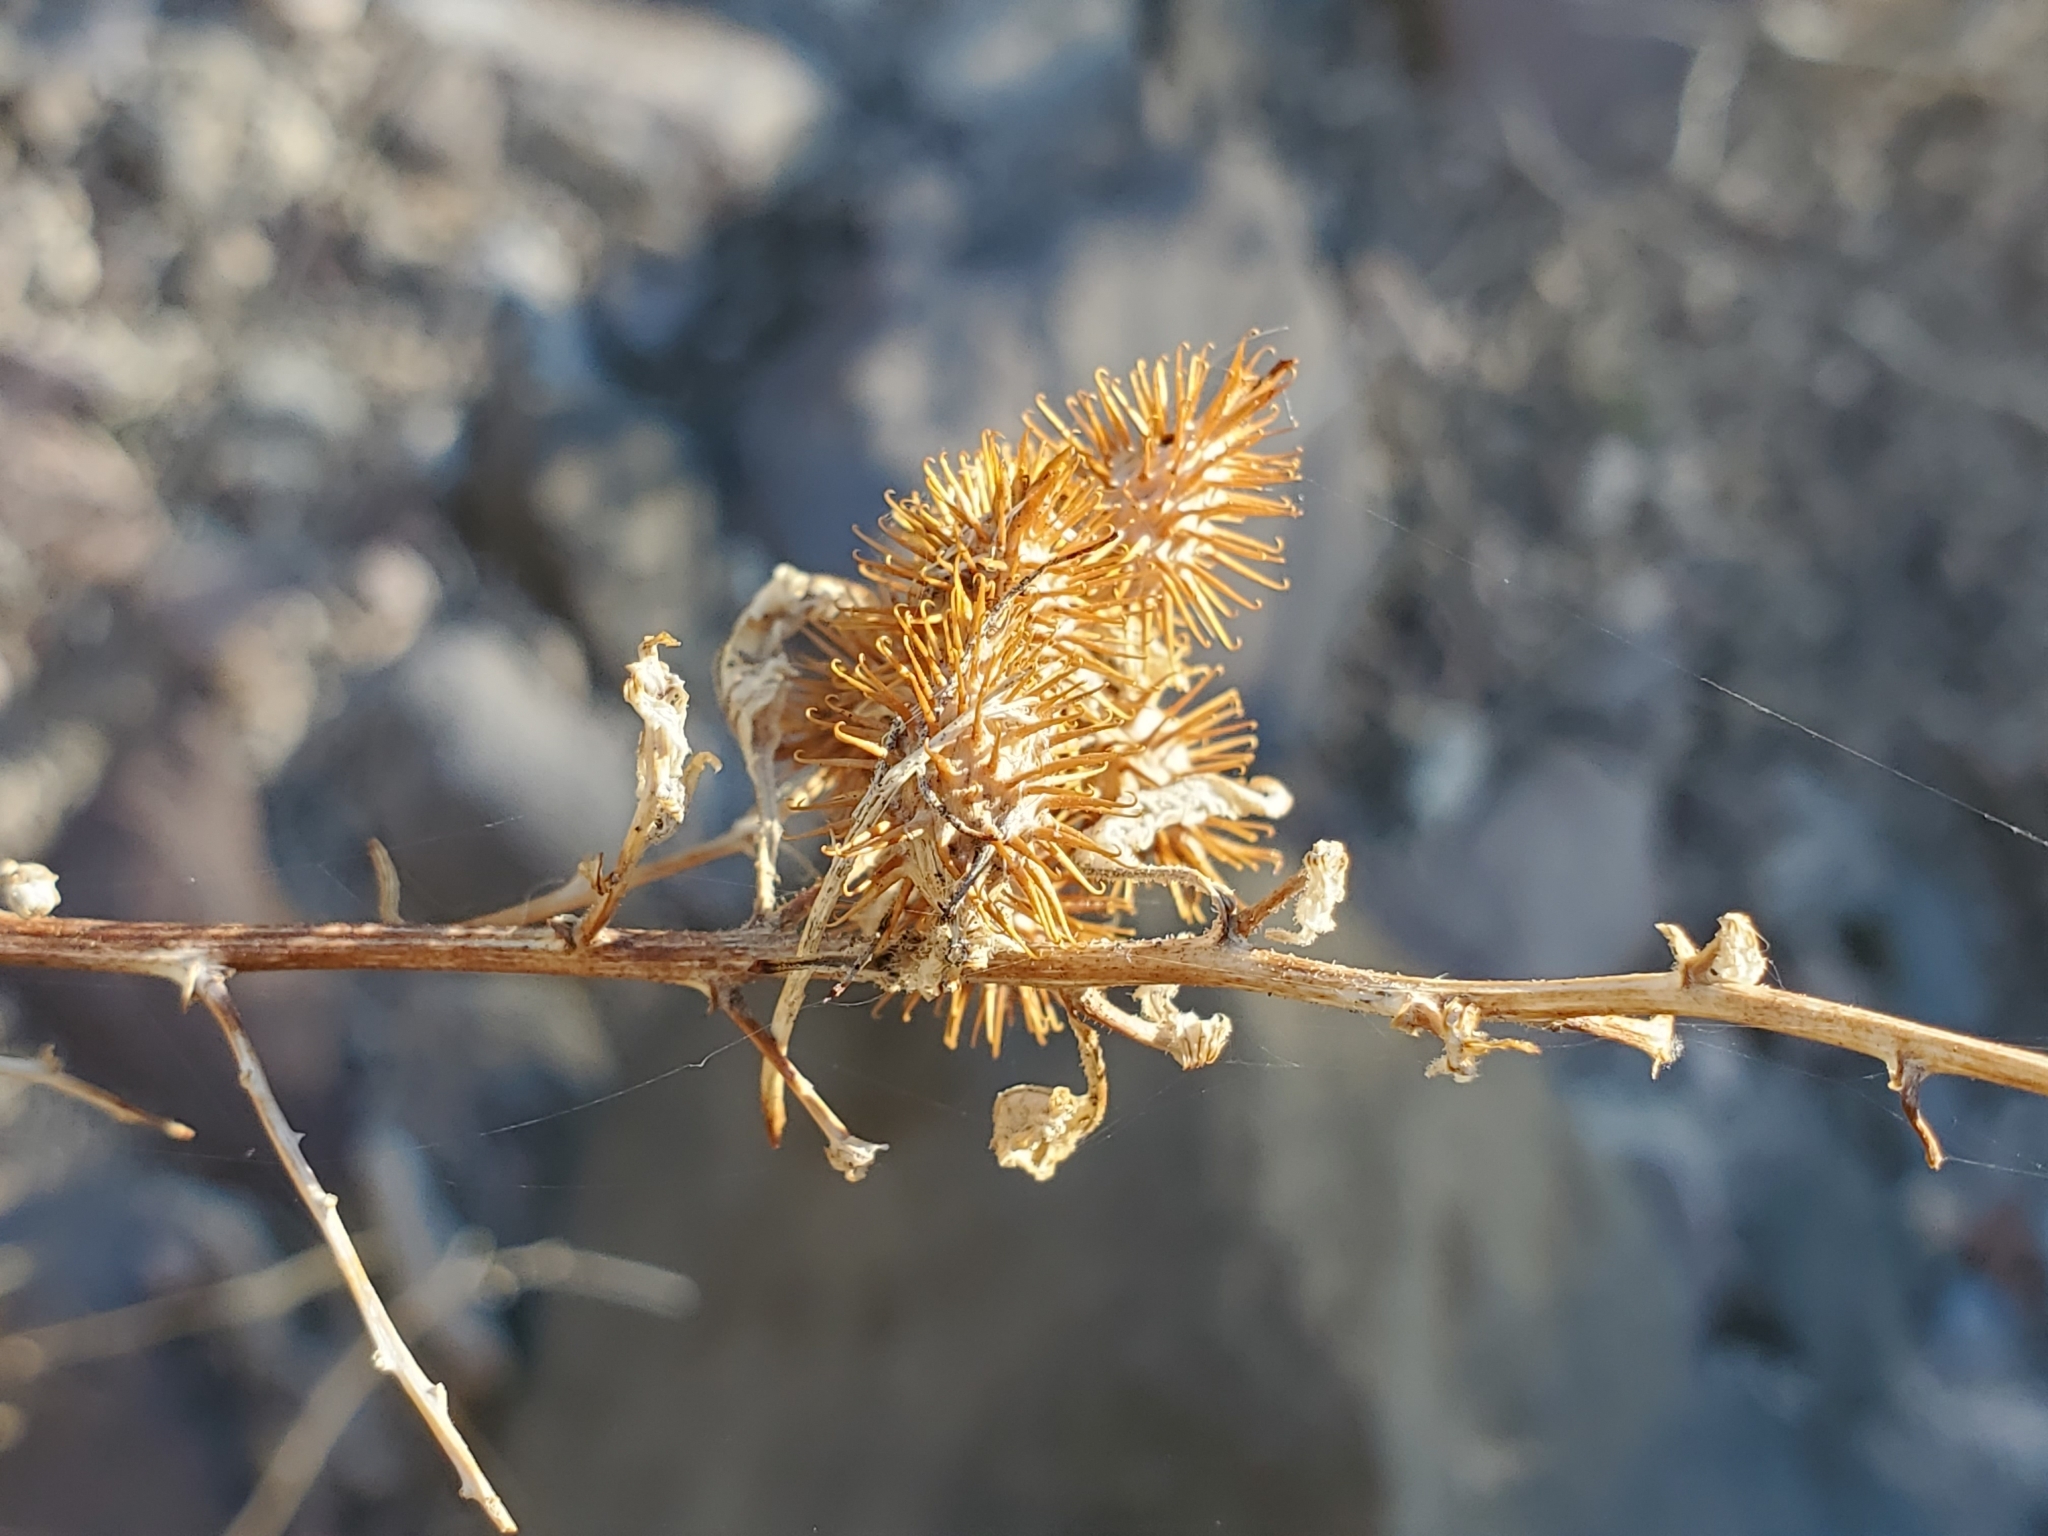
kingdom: Plantae
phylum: Tracheophyta
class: Magnoliopsida
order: Asterales
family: Asteraceae
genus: Ambrosia
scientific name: Ambrosia ambrosioides
